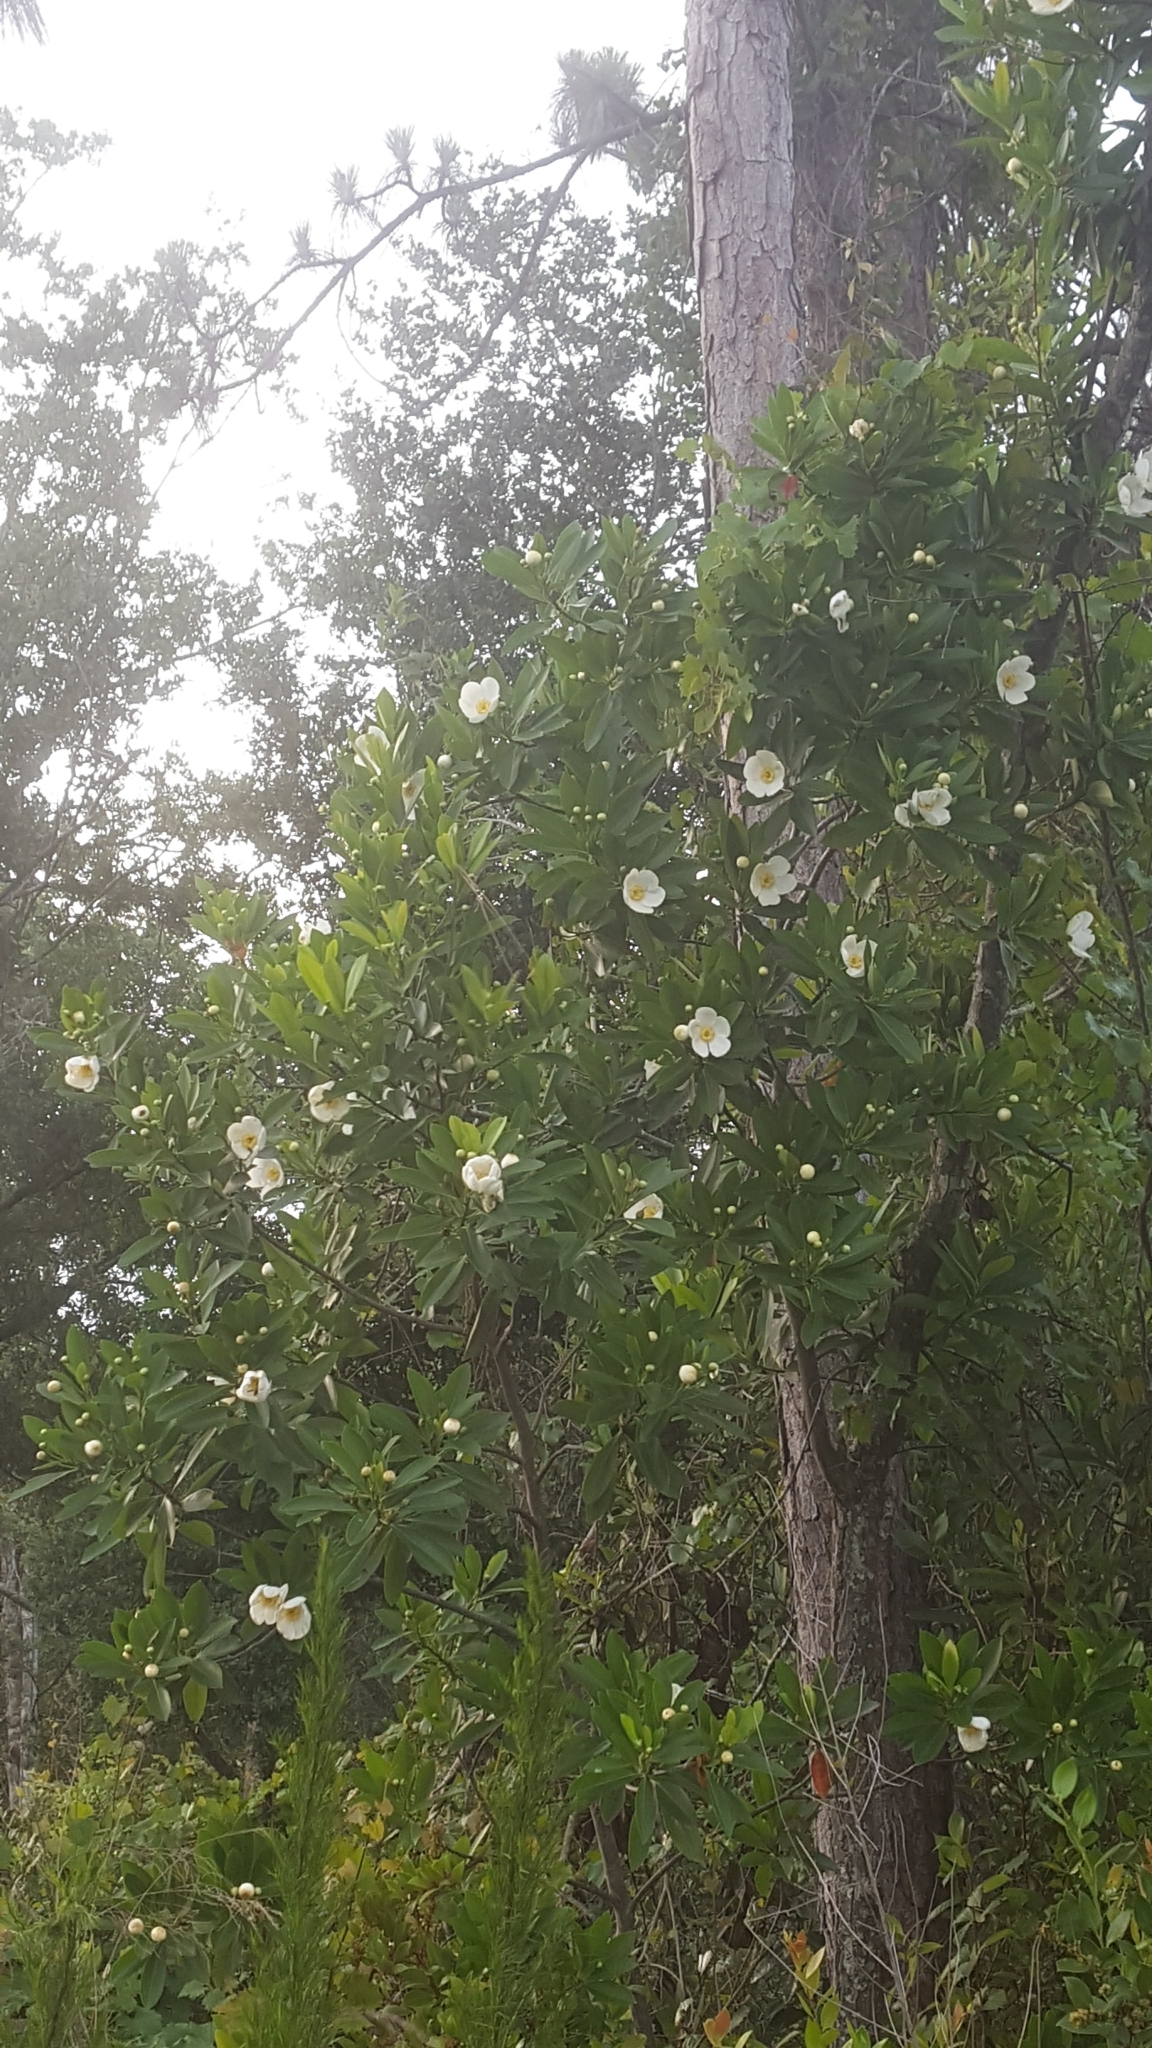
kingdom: Plantae
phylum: Tracheophyta
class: Magnoliopsida
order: Ericales
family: Theaceae
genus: Gordonia
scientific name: Gordonia lasianthus
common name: Loblolly bay
